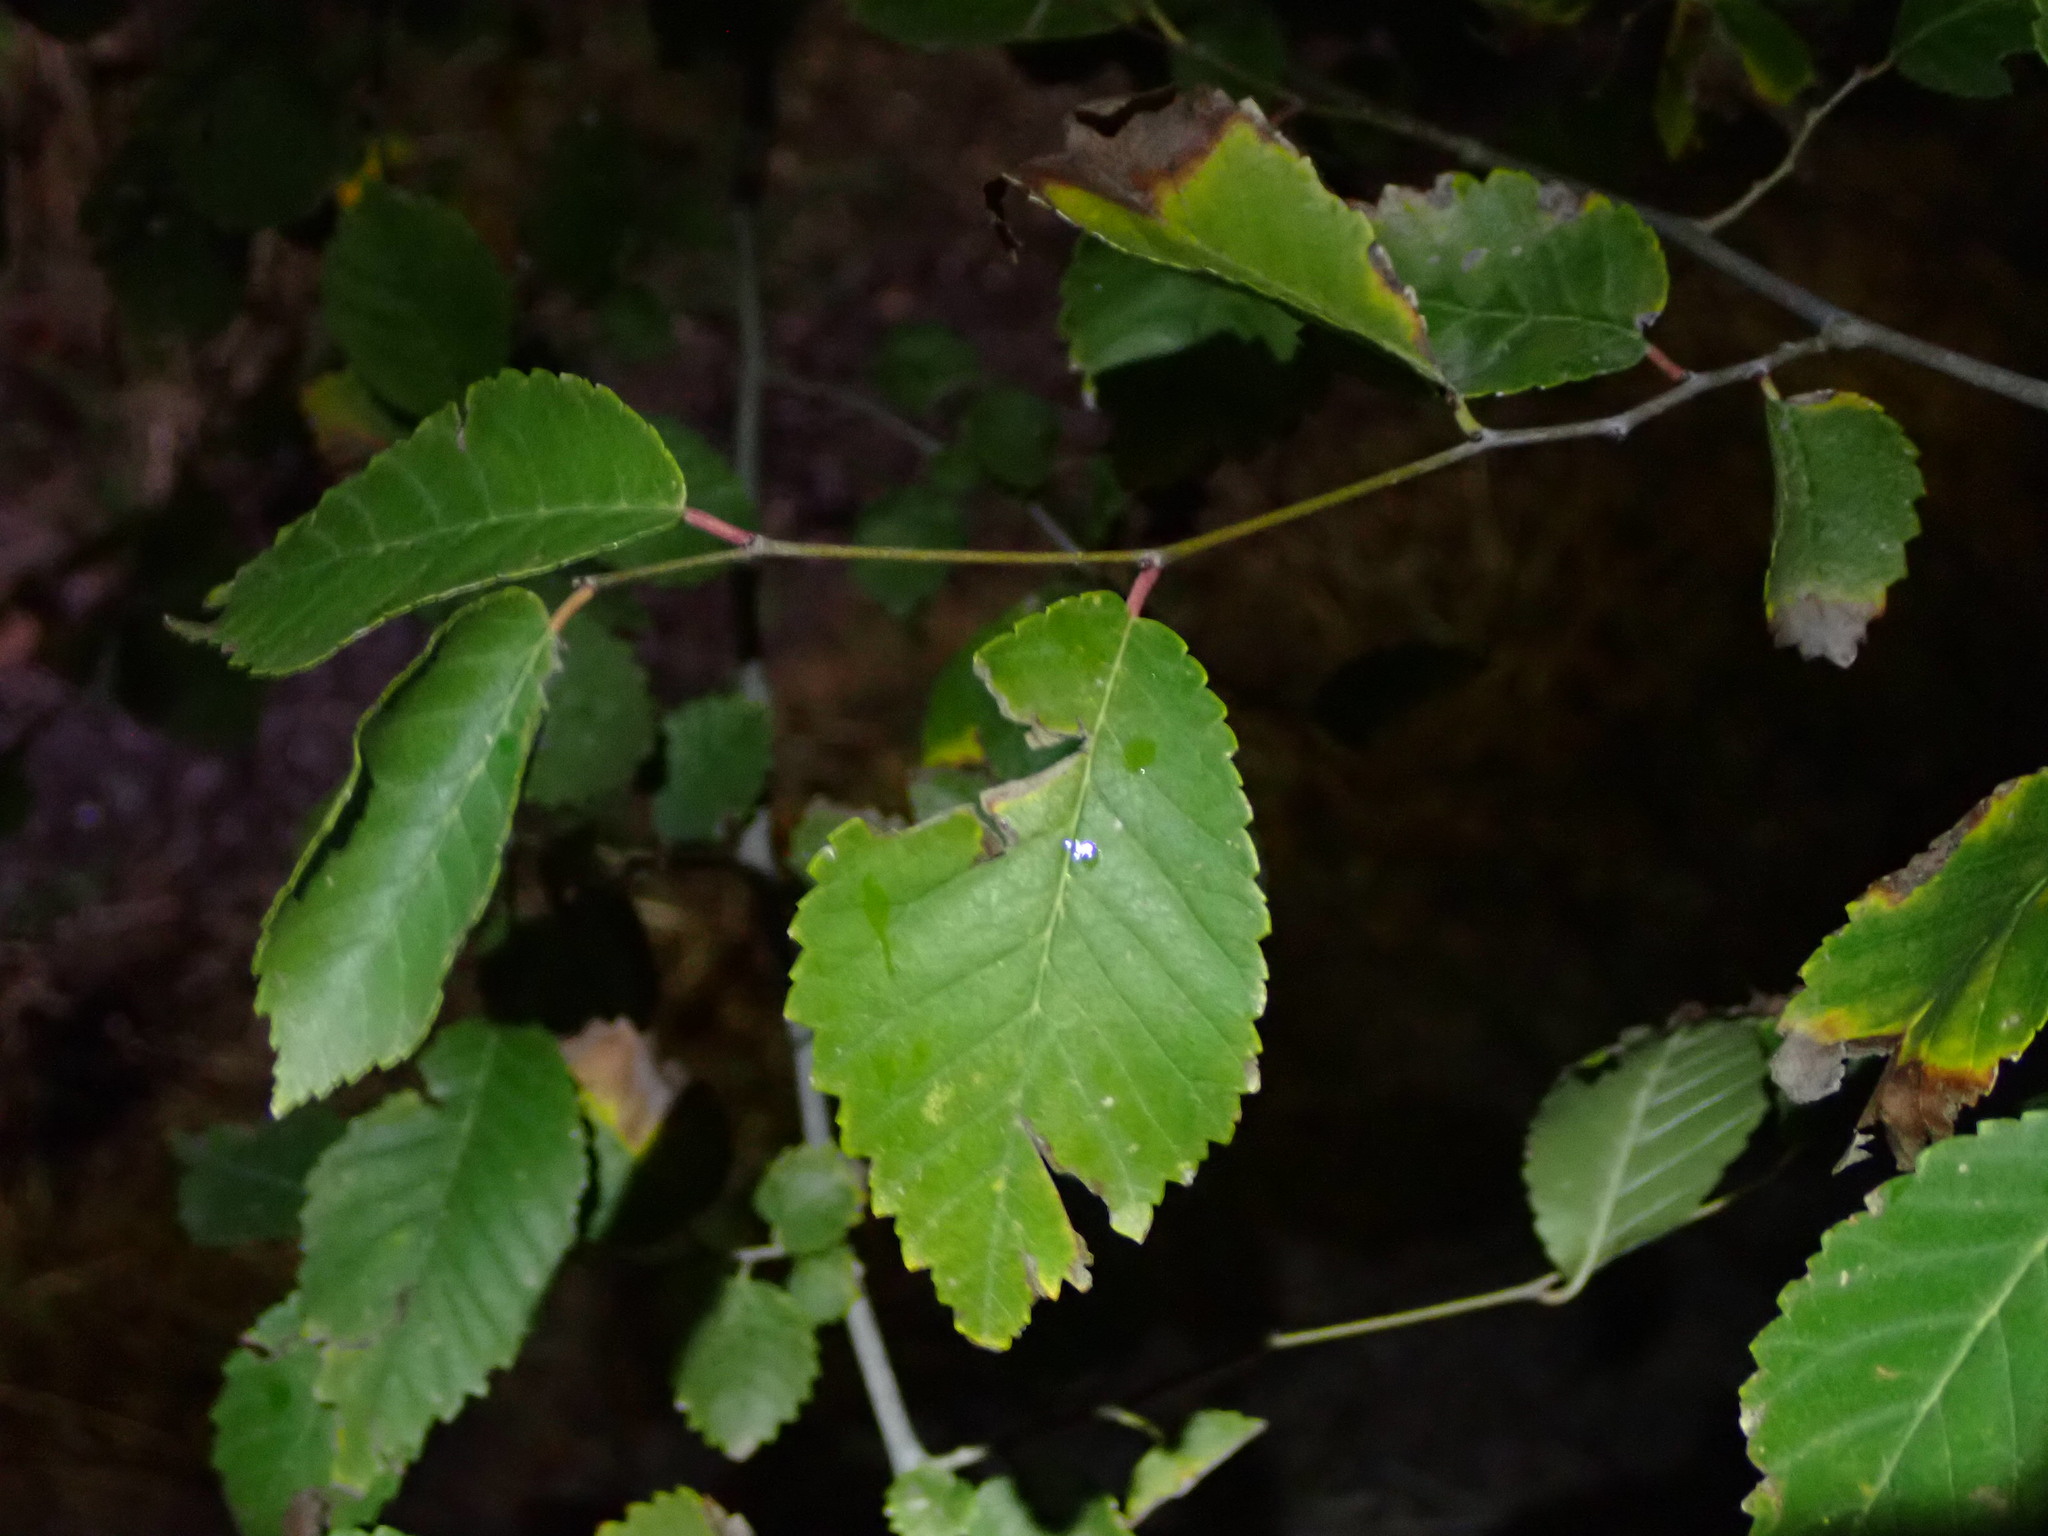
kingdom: Plantae
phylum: Tracheophyta
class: Magnoliopsida
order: Rosales
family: Ulmaceae
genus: Ulmus
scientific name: Ulmus pumila
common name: Siberian elm
